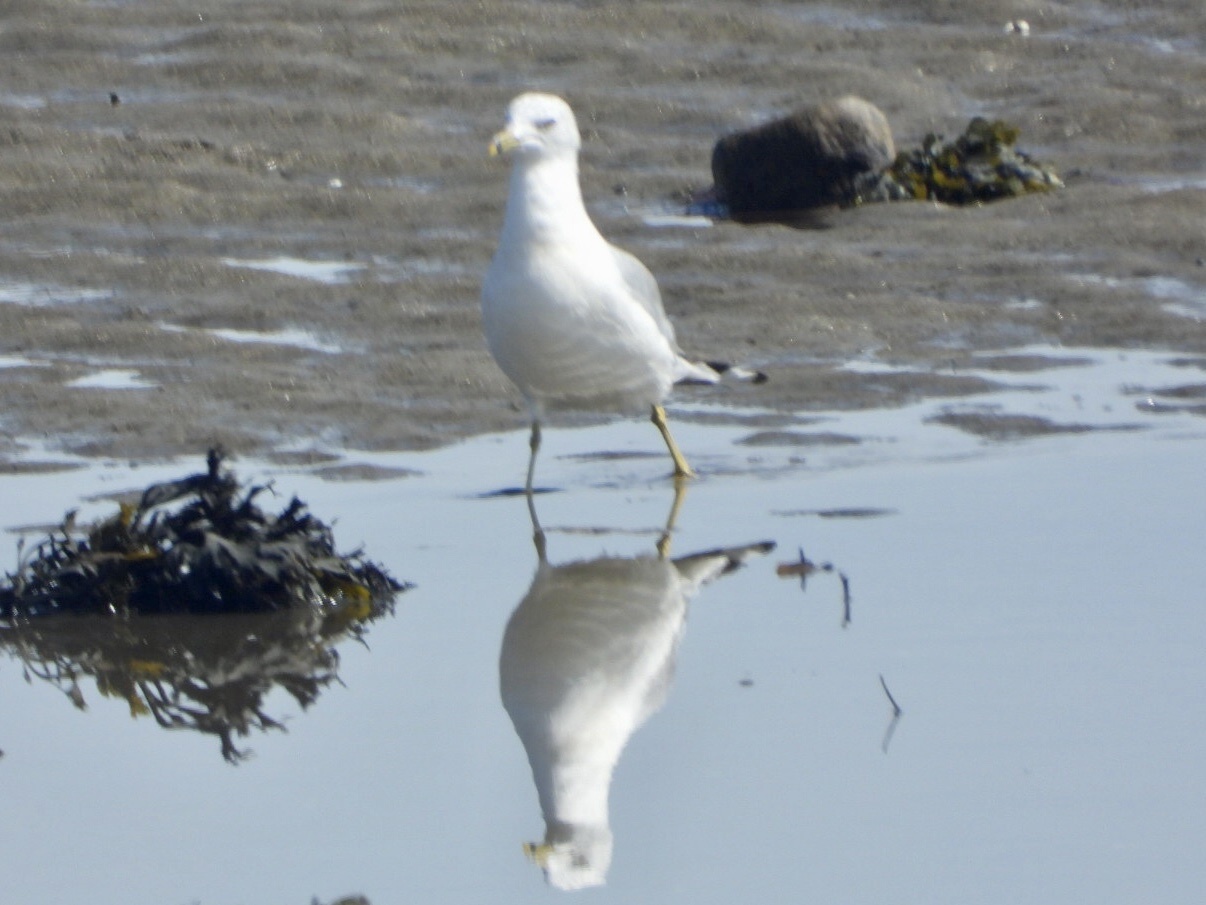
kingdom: Animalia
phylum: Chordata
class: Aves
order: Charadriiformes
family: Laridae
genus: Larus
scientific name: Larus delawarensis
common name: Ring-billed gull
